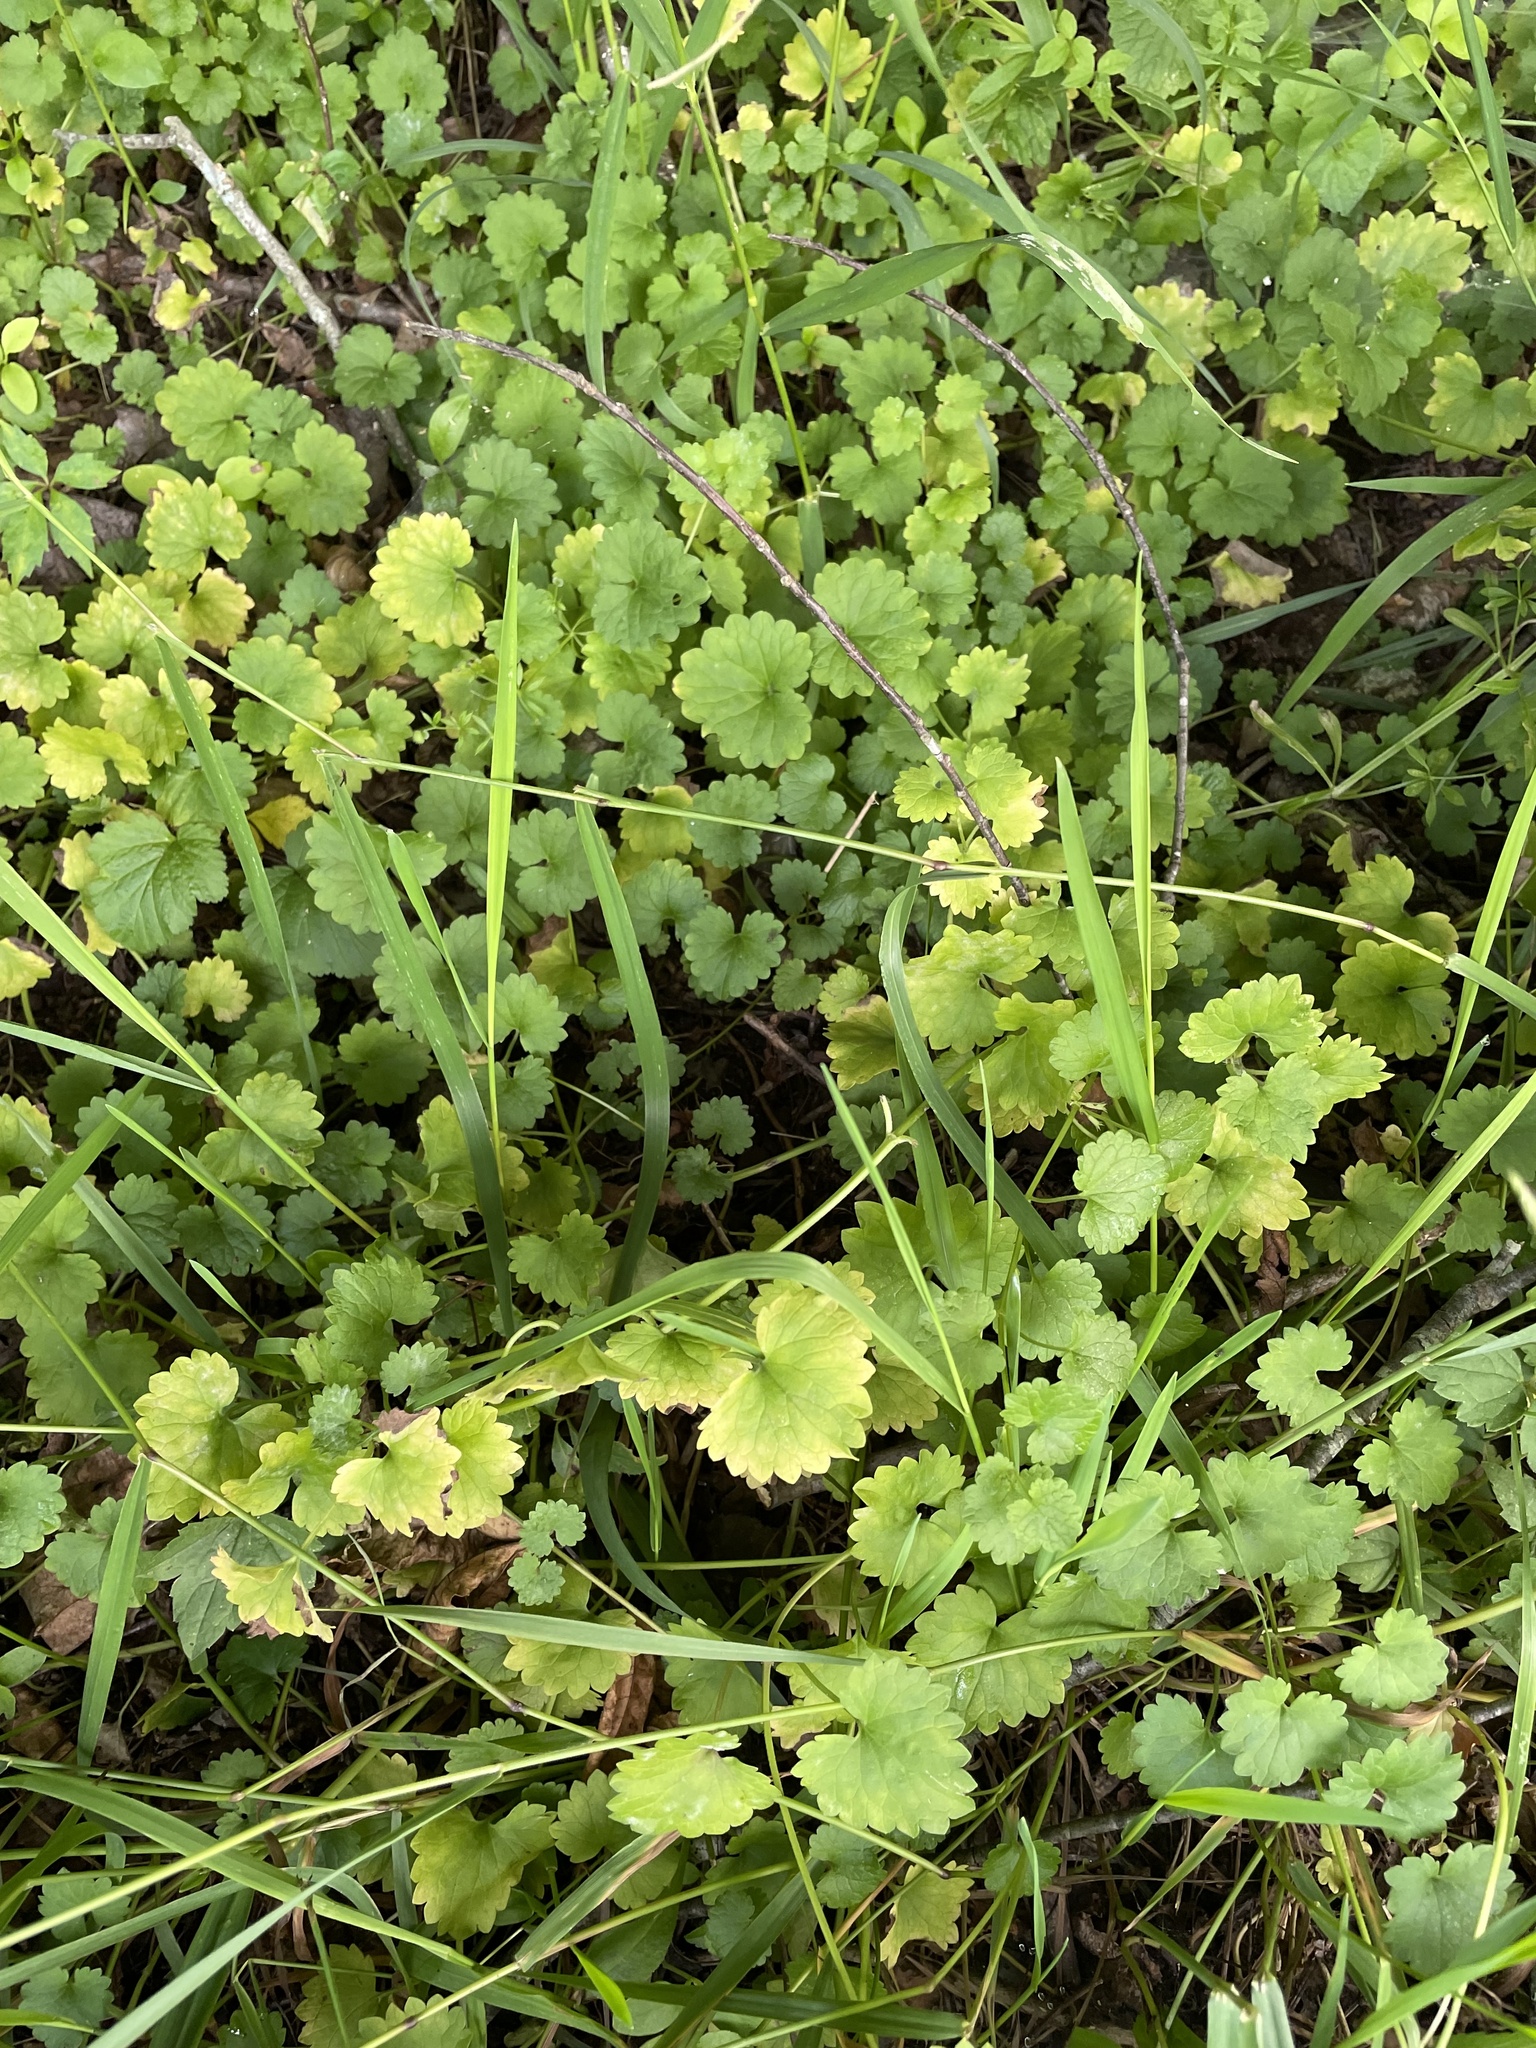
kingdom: Plantae
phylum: Tracheophyta
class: Magnoliopsida
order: Lamiales
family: Lamiaceae
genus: Glechoma
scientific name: Glechoma hederacea
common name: Ground ivy
